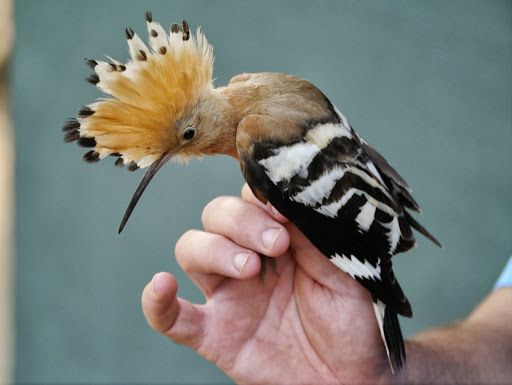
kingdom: Animalia
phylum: Chordata
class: Aves
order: Bucerotiformes
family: Upupidae
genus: Upupa
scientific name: Upupa epops
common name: Eurasian hoopoe
